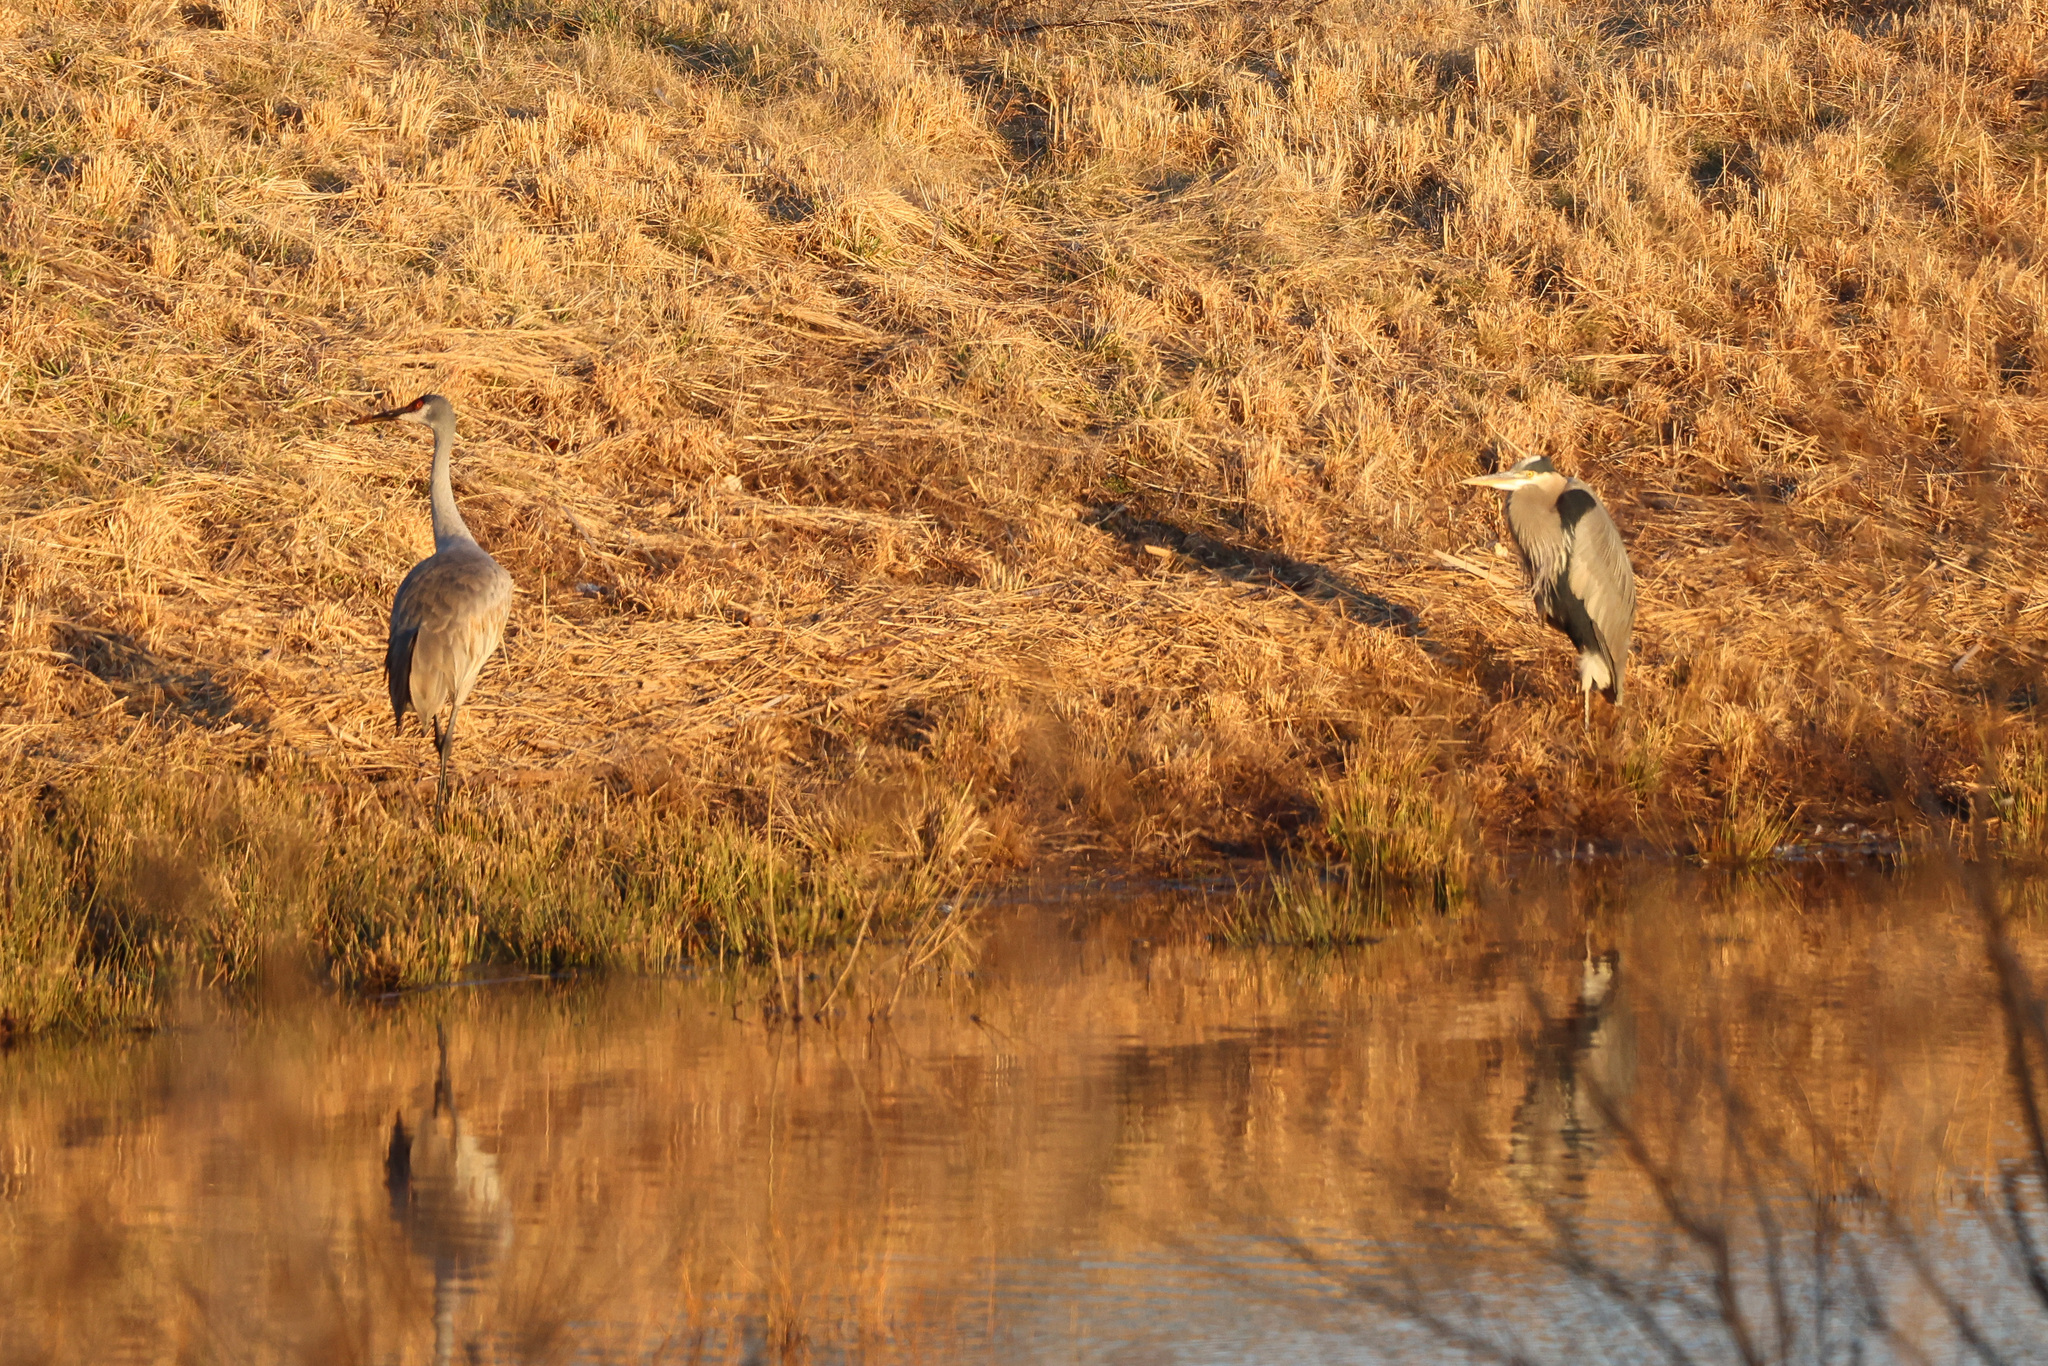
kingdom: Animalia
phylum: Chordata
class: Aves
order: Pelecaniformes
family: Ardeidae
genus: Ardea
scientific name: Ardea herodias
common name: Great blue heron
